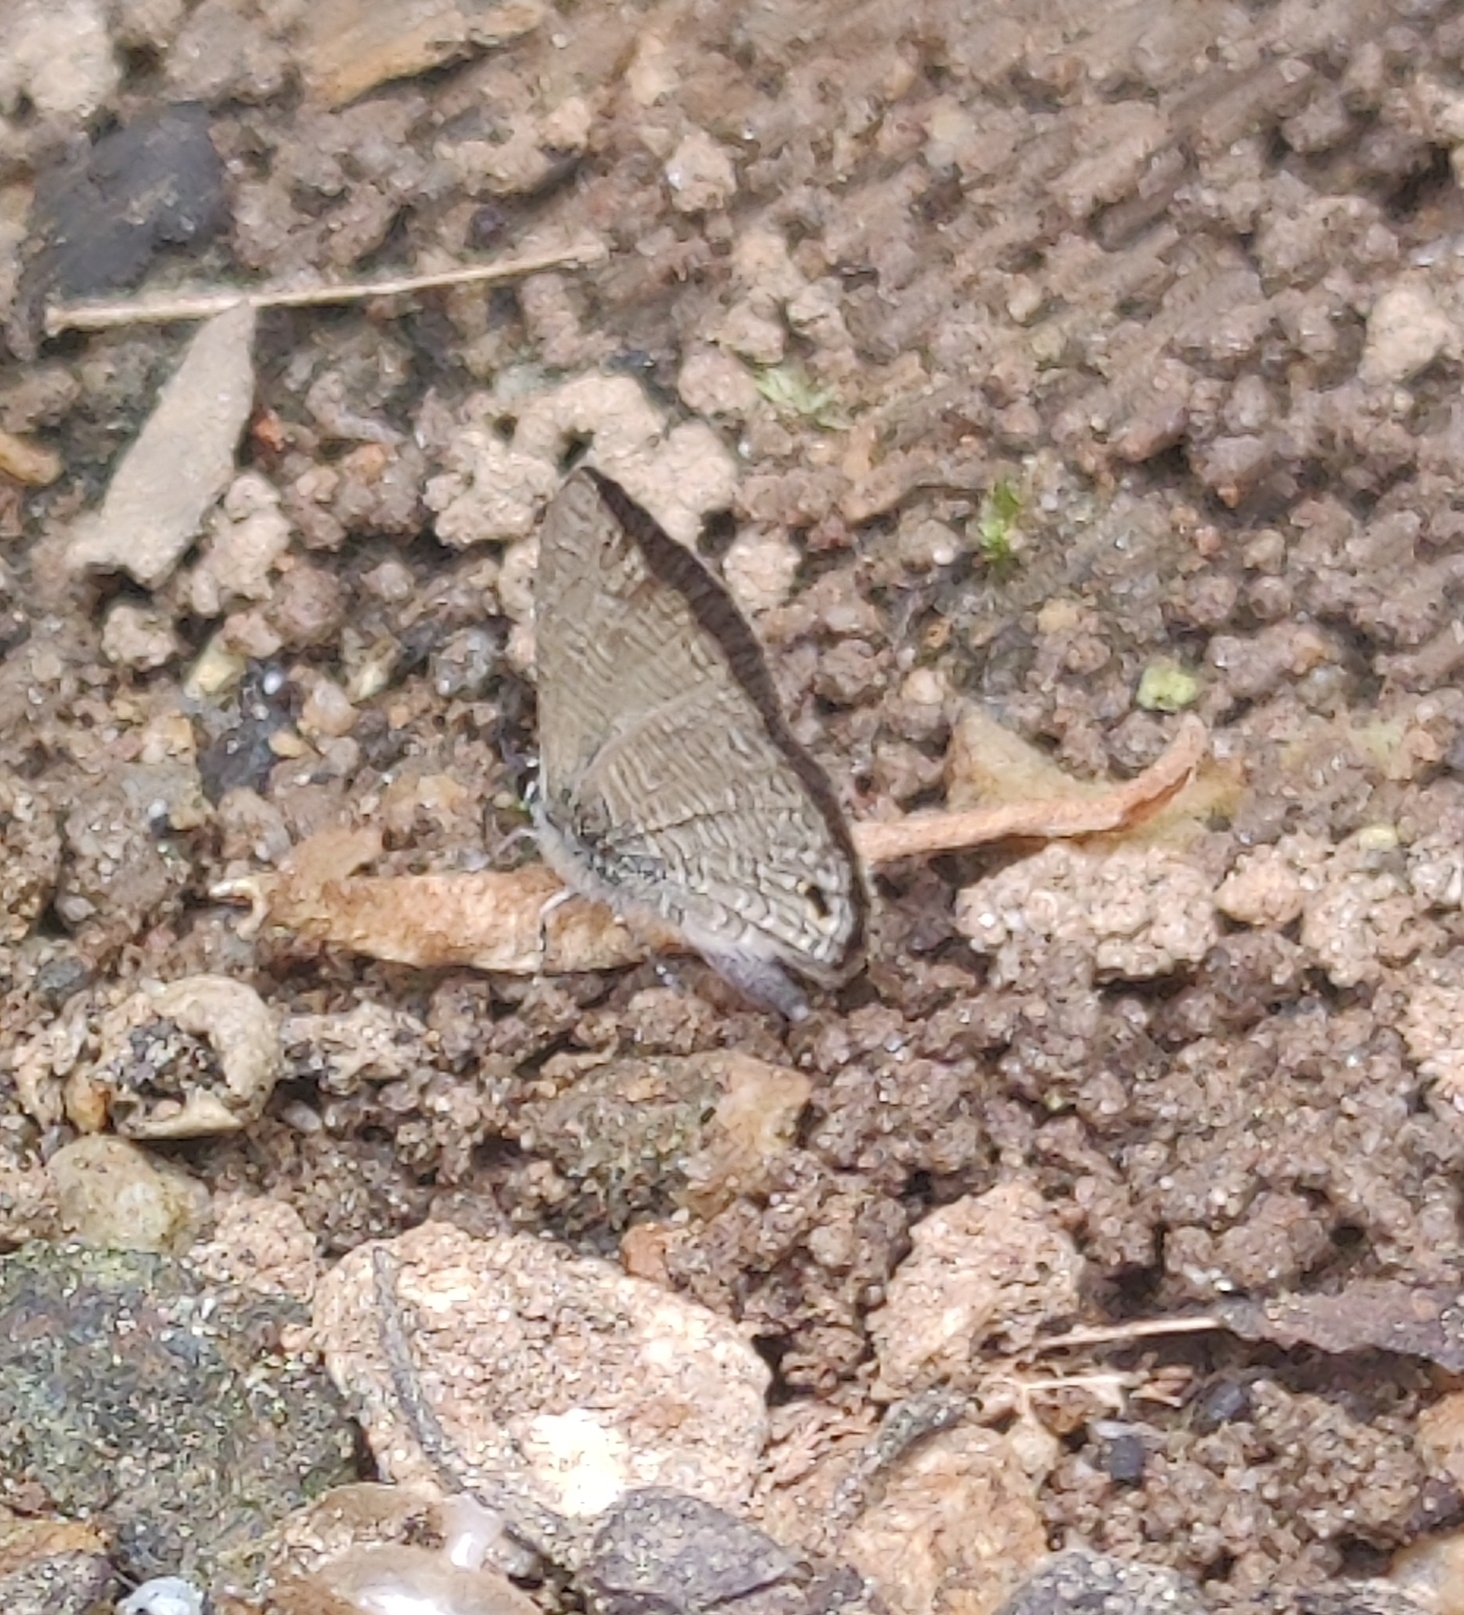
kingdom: Animalia
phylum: Arthropoda
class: Insecta
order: Lepidoptera
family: Lycaenidae
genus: Prosotas
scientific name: Prosotas dubiosa
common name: Tailless lineblue
